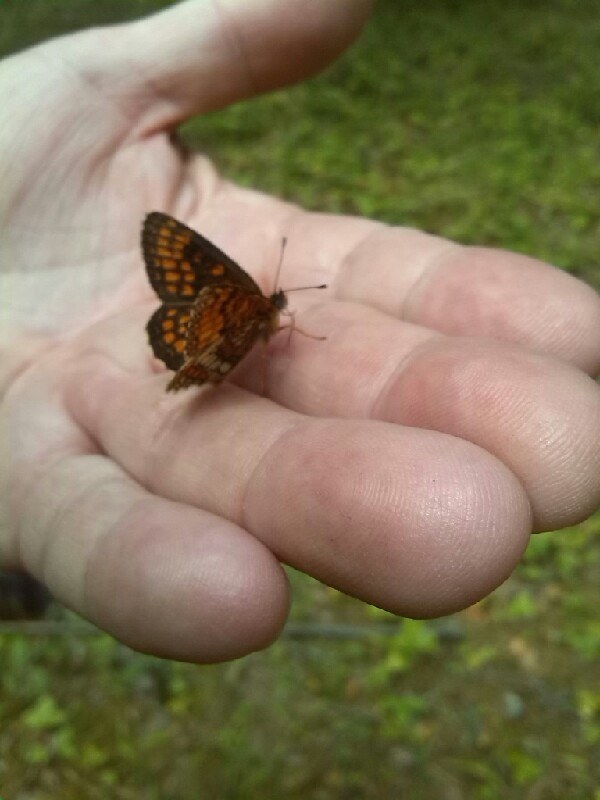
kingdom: Animalia
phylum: Arthropoda
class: Insecta
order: Lepidoptera
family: Nymphalidae
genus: Melitaea
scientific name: Melitaea athalia
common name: Heath fritillary
